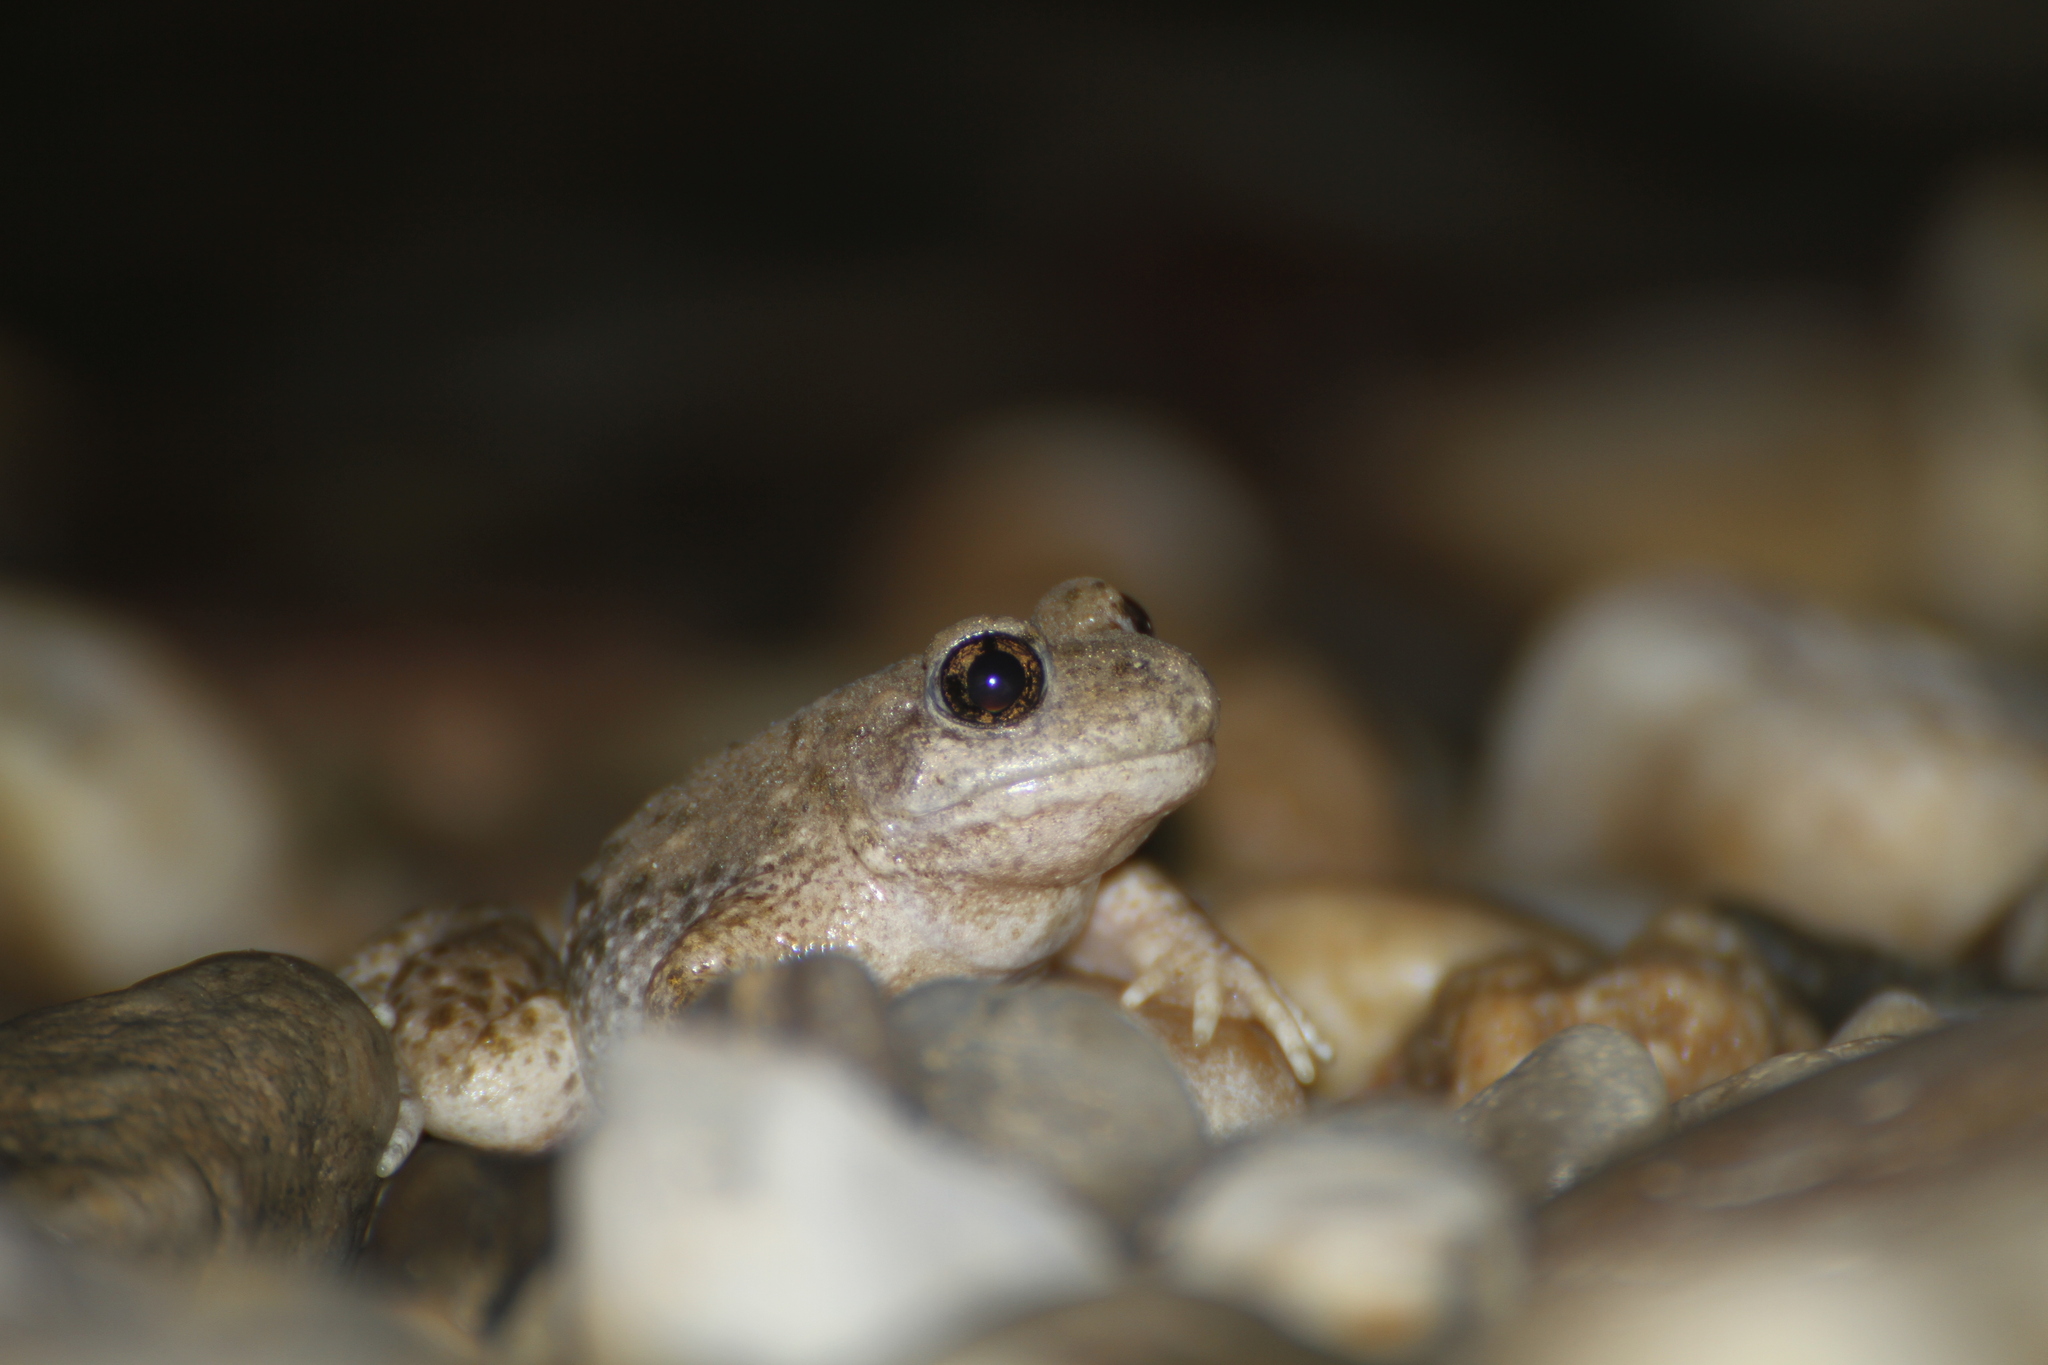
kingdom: Animalia
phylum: Chordata
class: Amphibia
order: Anura
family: Alytidae
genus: Alytes
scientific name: Alytes obstetricans
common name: Midwife toad
